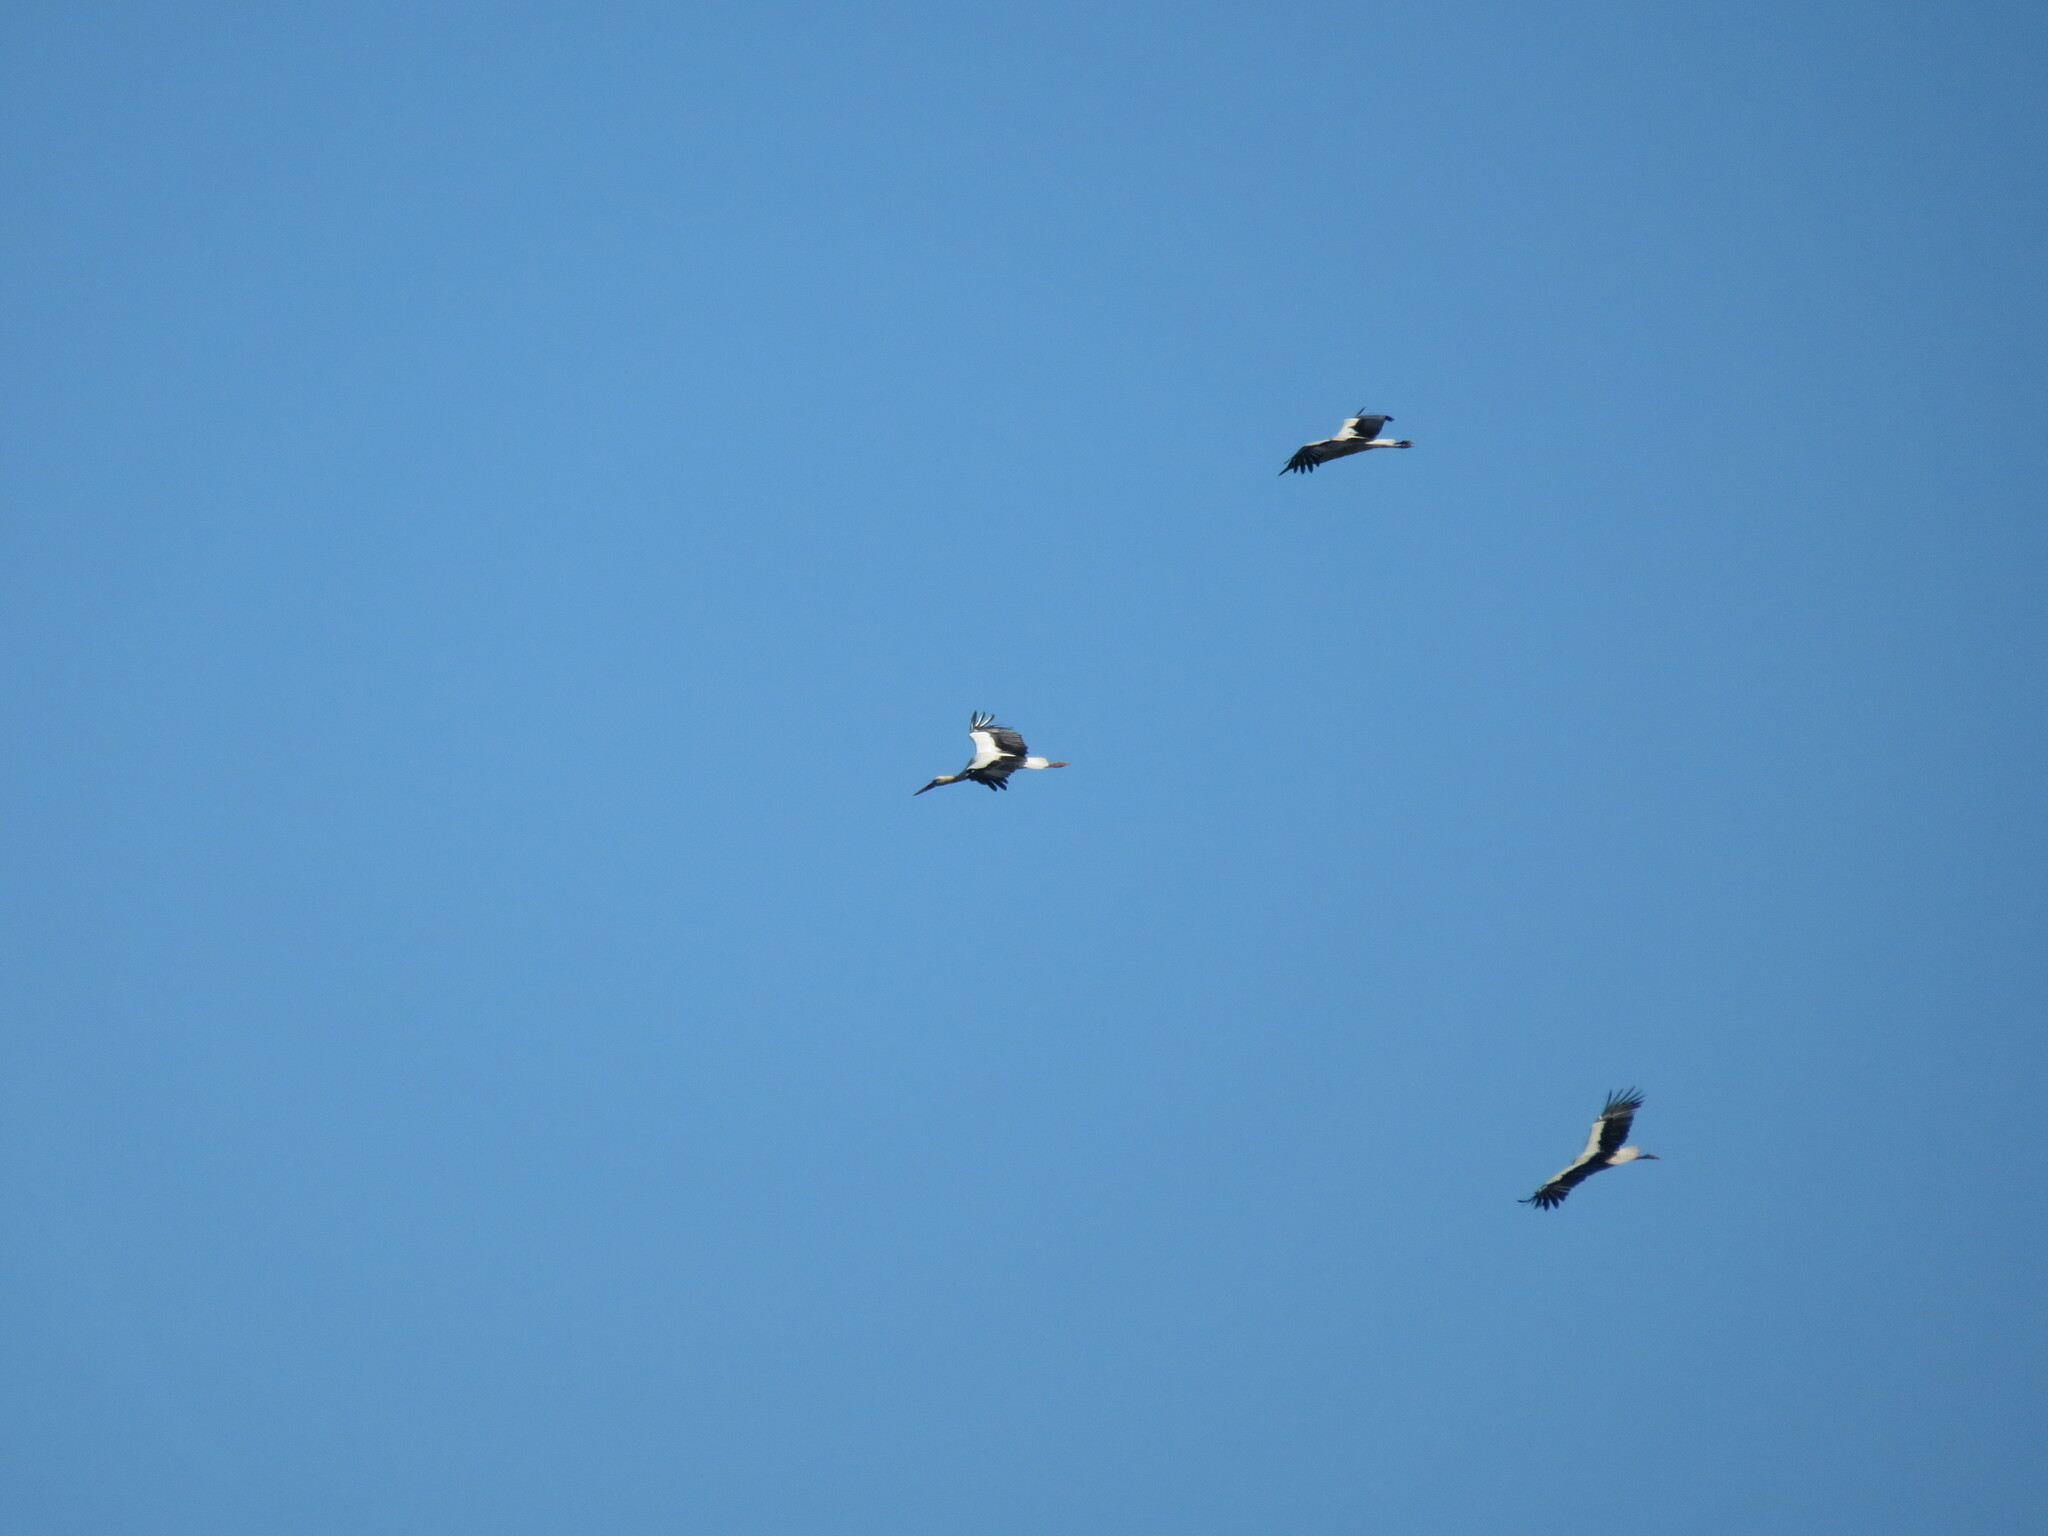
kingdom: Animalia
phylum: Chordata
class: Aves
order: Ciconiiformes
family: Ciconiidae
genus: Ciconia
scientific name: Ciconia ciconia
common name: White stork
